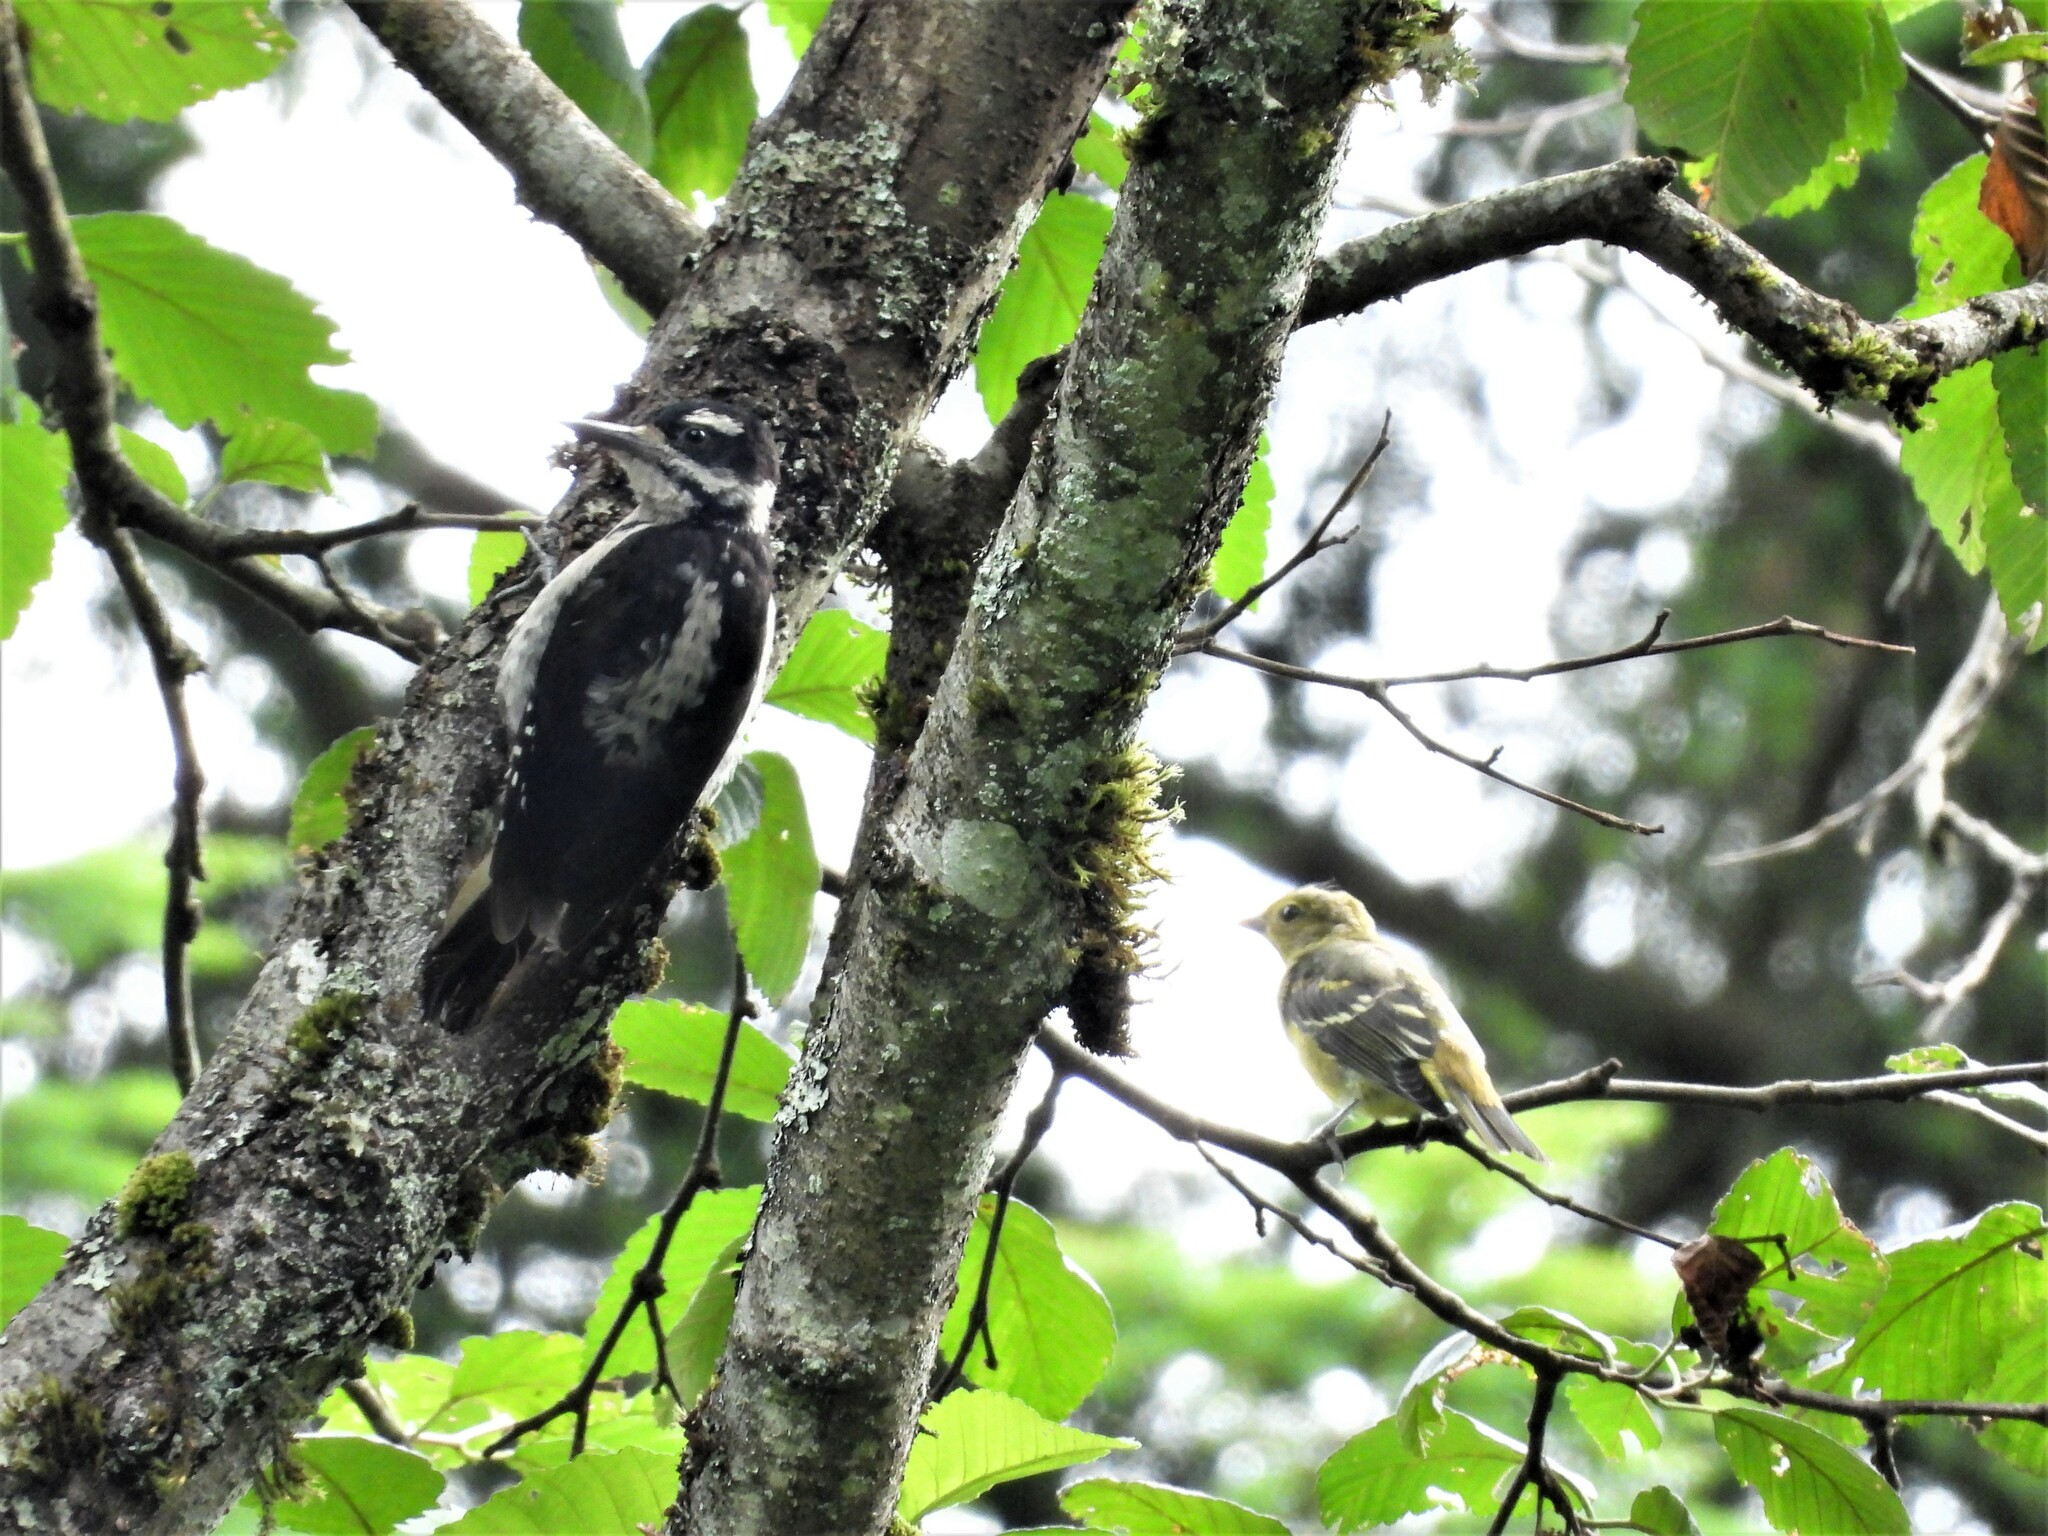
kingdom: Animalia
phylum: Chordata
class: Aves
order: Piciformes
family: Picidae
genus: Leuconotopicus
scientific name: Leuconotopicus villosus
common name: Hairy woodpecker
